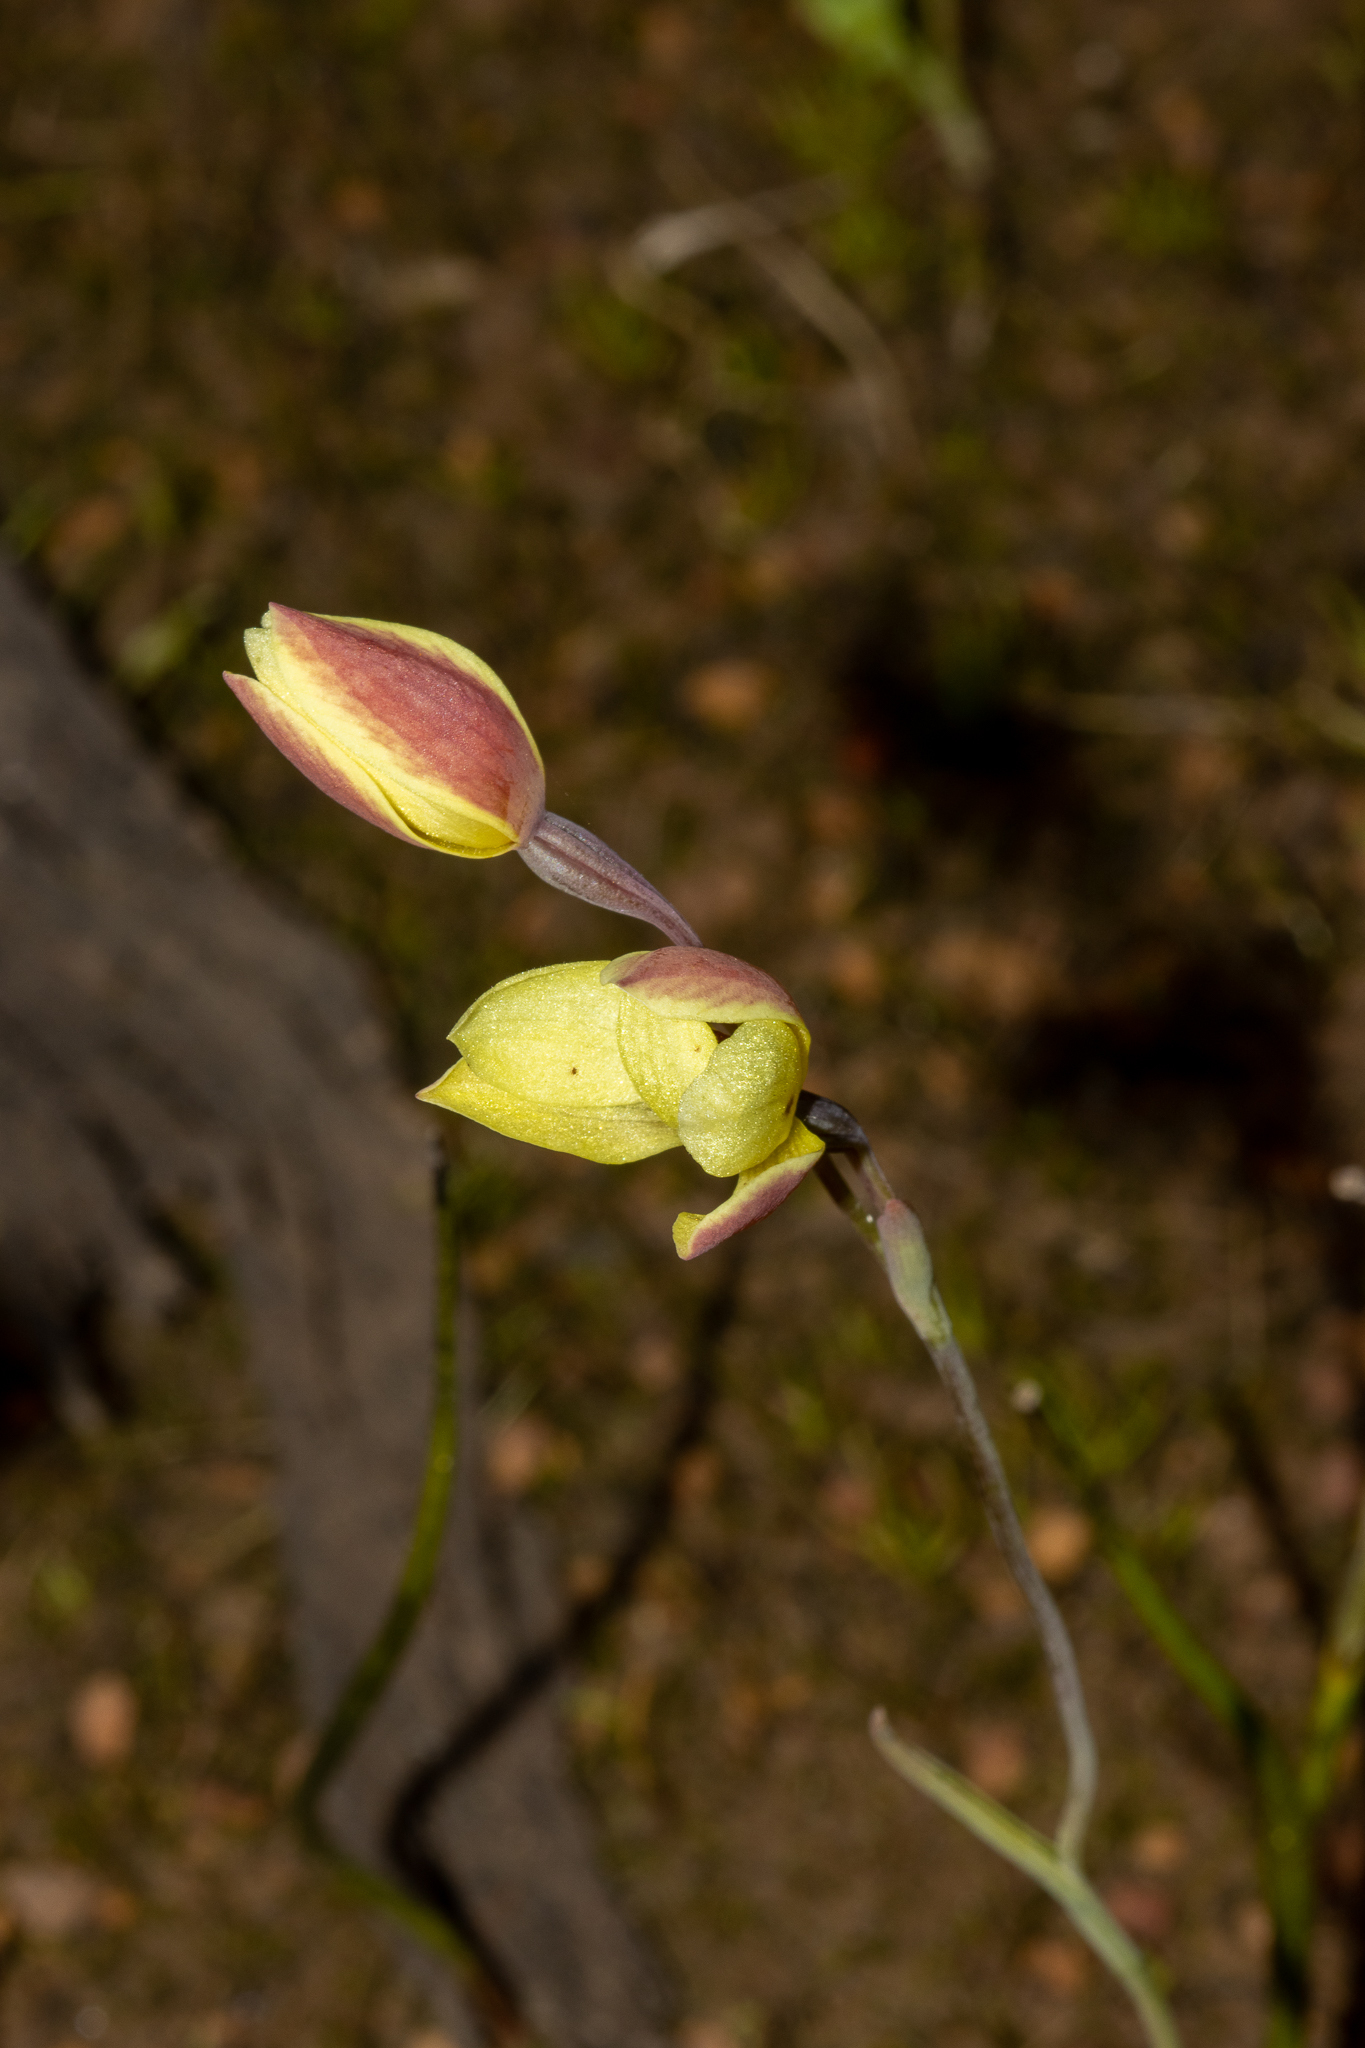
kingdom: Plantae
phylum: Tracheophyta
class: Liliopsida
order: Asparagales
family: Orchidaceae
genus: Thelymitra
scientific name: Thelymitra antennifera
